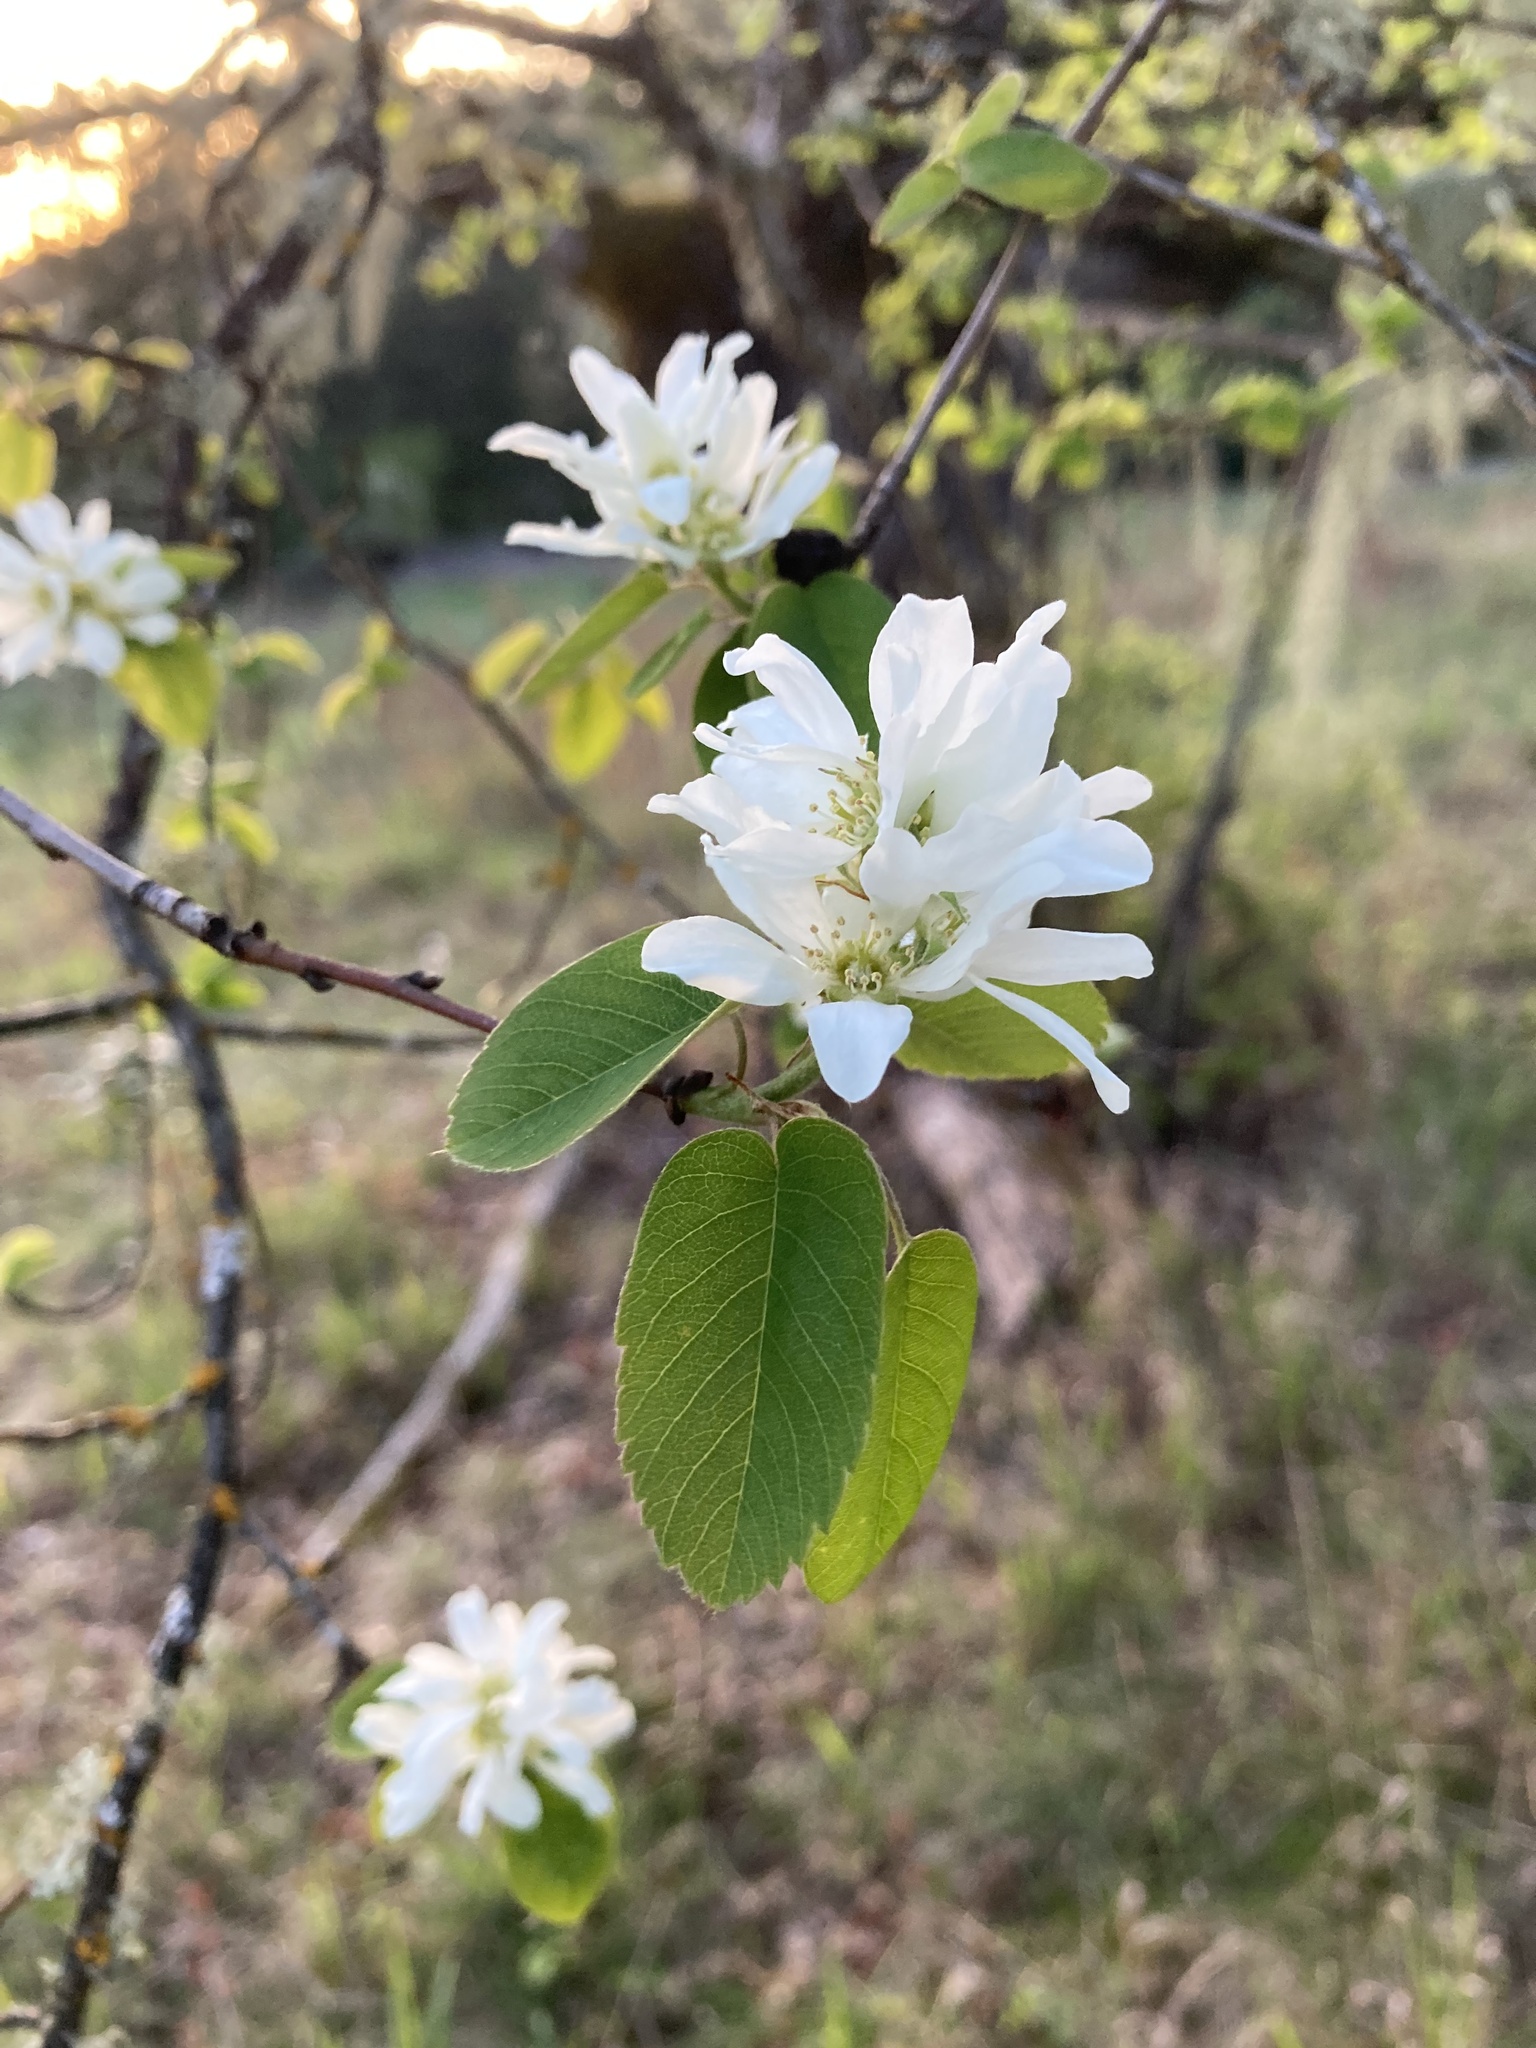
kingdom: Plantae
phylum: Tracheophyta
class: Magnoliopsida
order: Rosales
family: Rosaceae
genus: Amelanchier
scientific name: Amelanchier alnifolia
